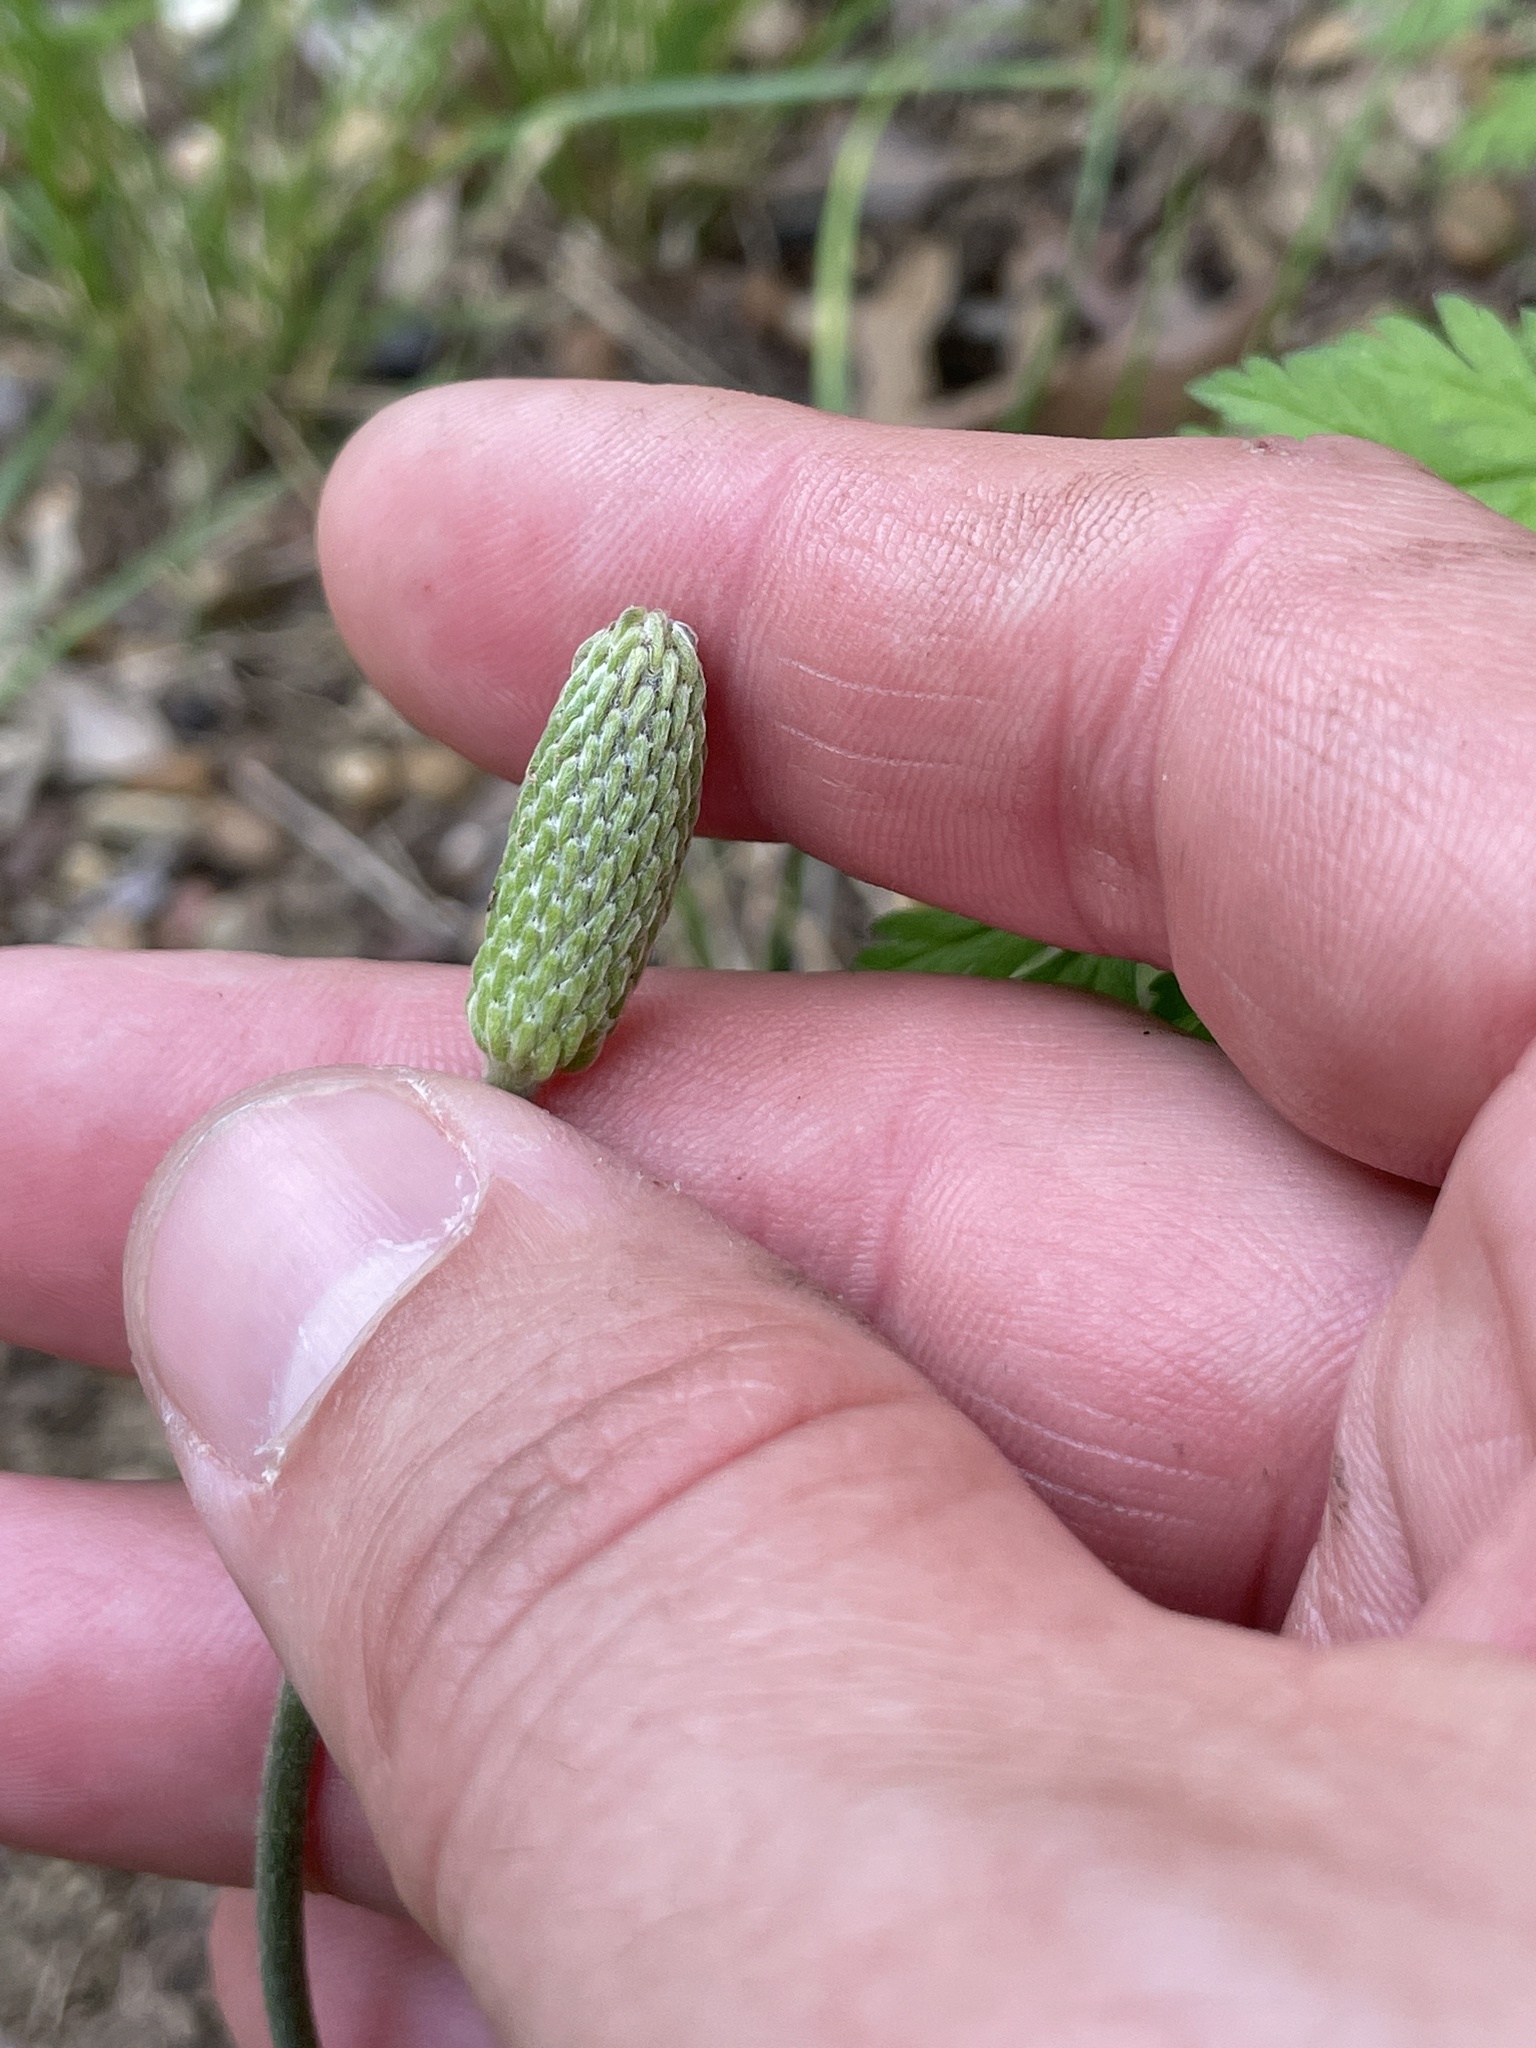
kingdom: Plantae
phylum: Tracheophyta
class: Magnoliopsida
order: Ranunculales
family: Ranunculaceae
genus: Anemone
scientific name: Anemone berlandieri
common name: Ten-petal anemone
